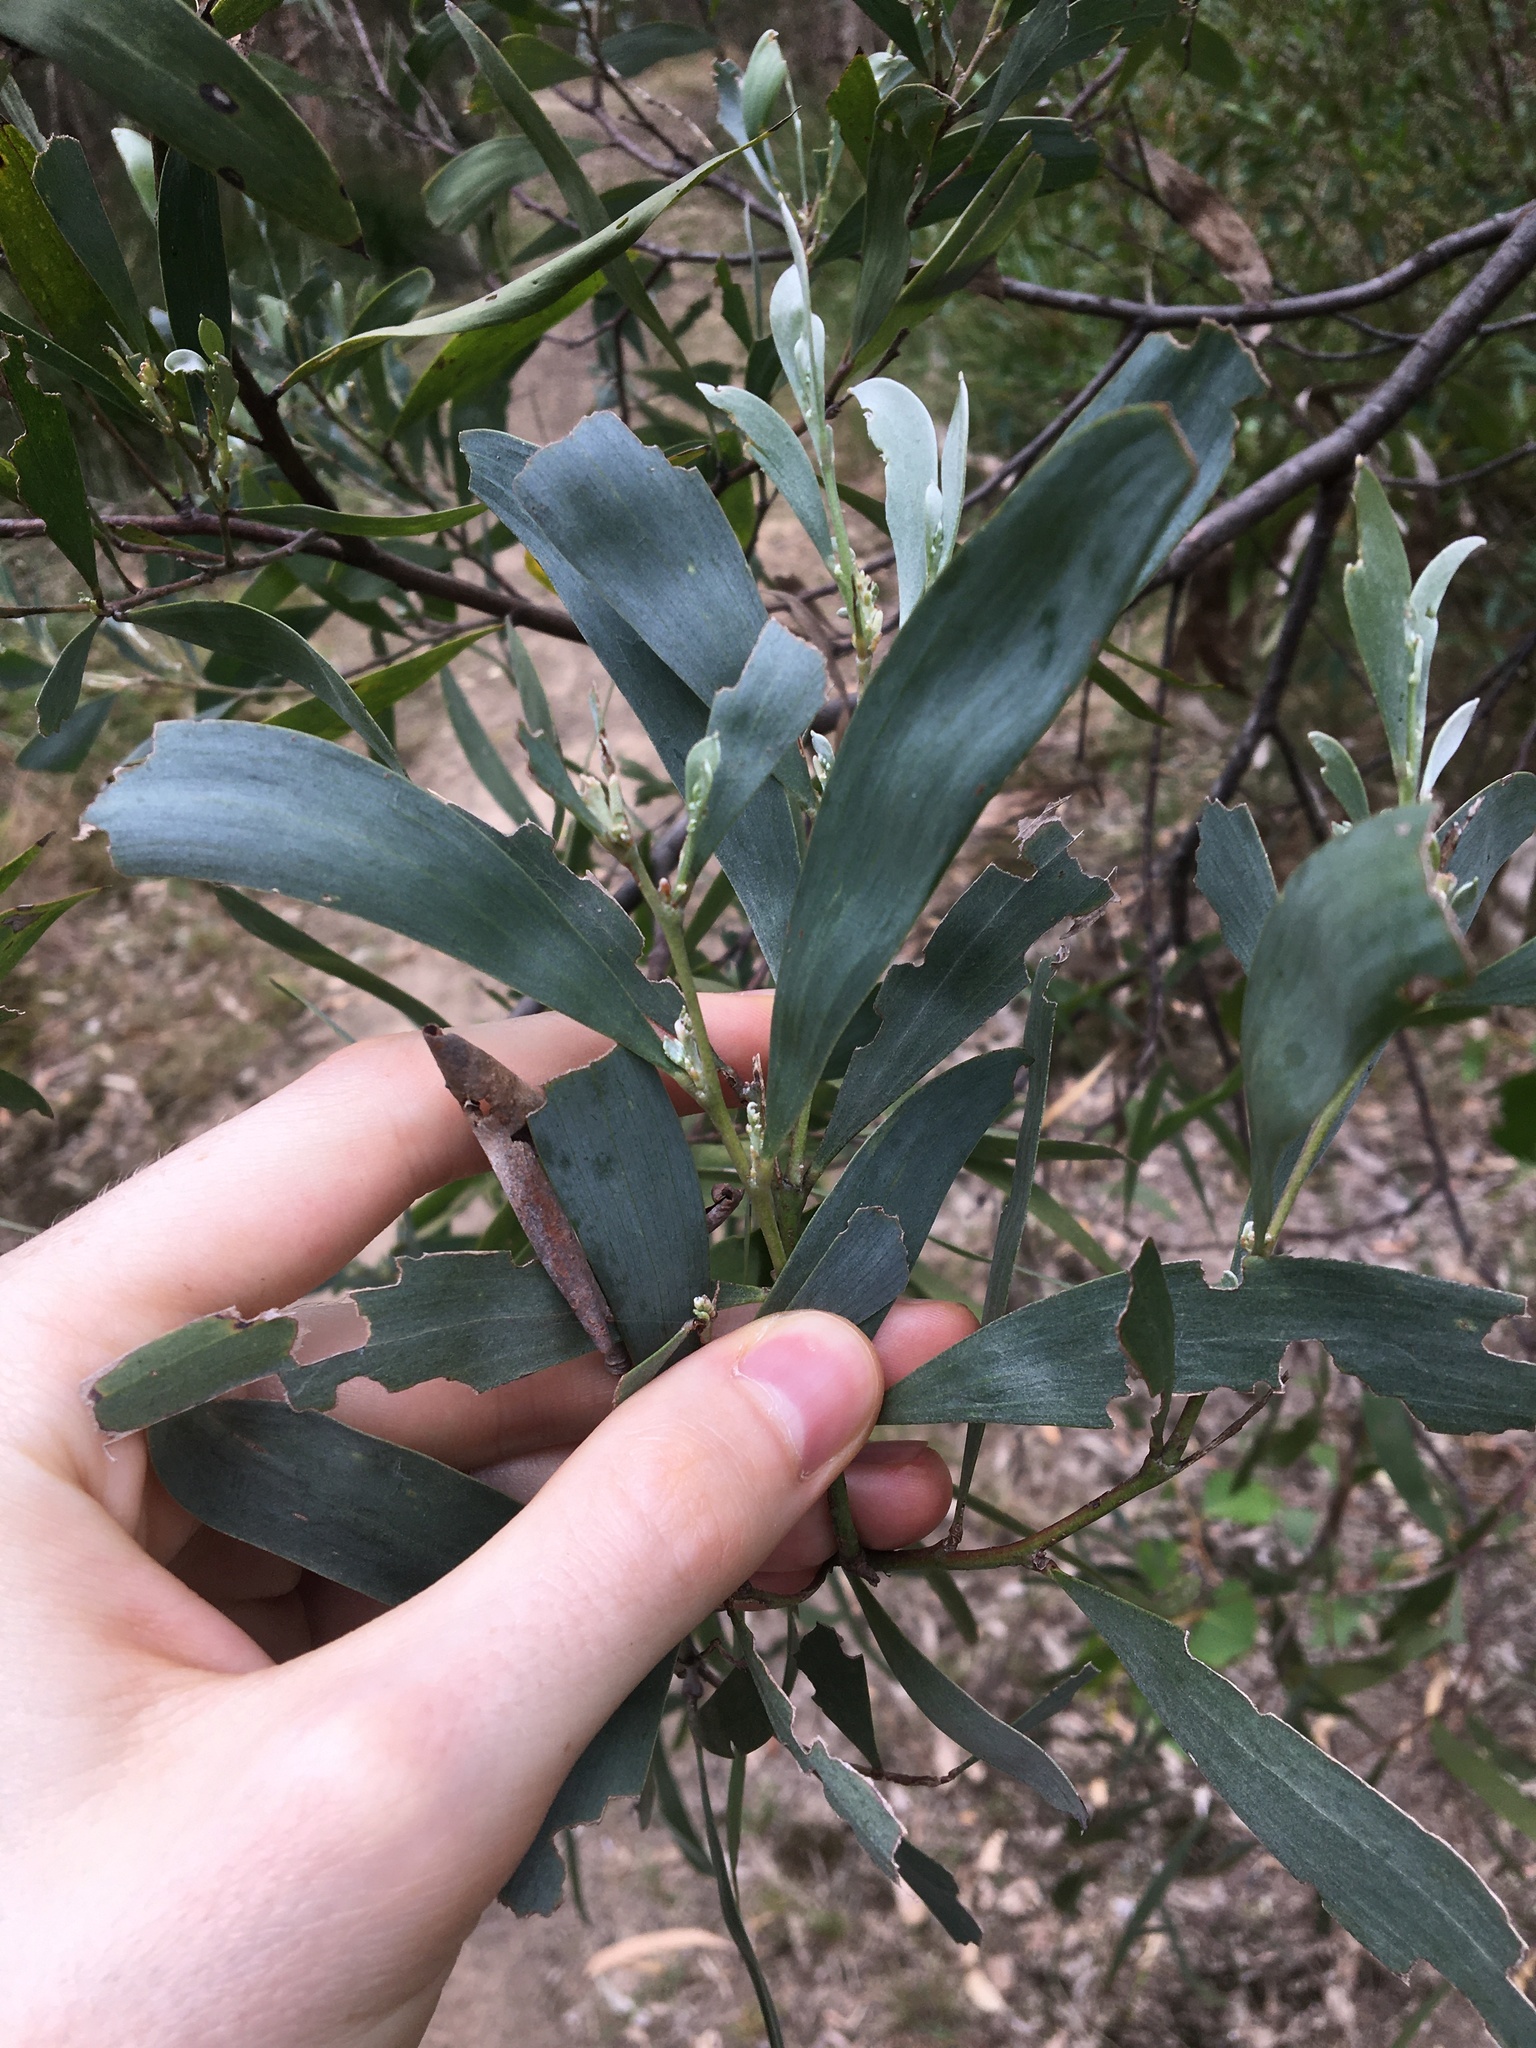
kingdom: Plantae
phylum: Tracheophyta
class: Magnoliopsida
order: Fabales
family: Fabaceae
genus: Acacia
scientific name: Acacia binervia
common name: Coast myall
